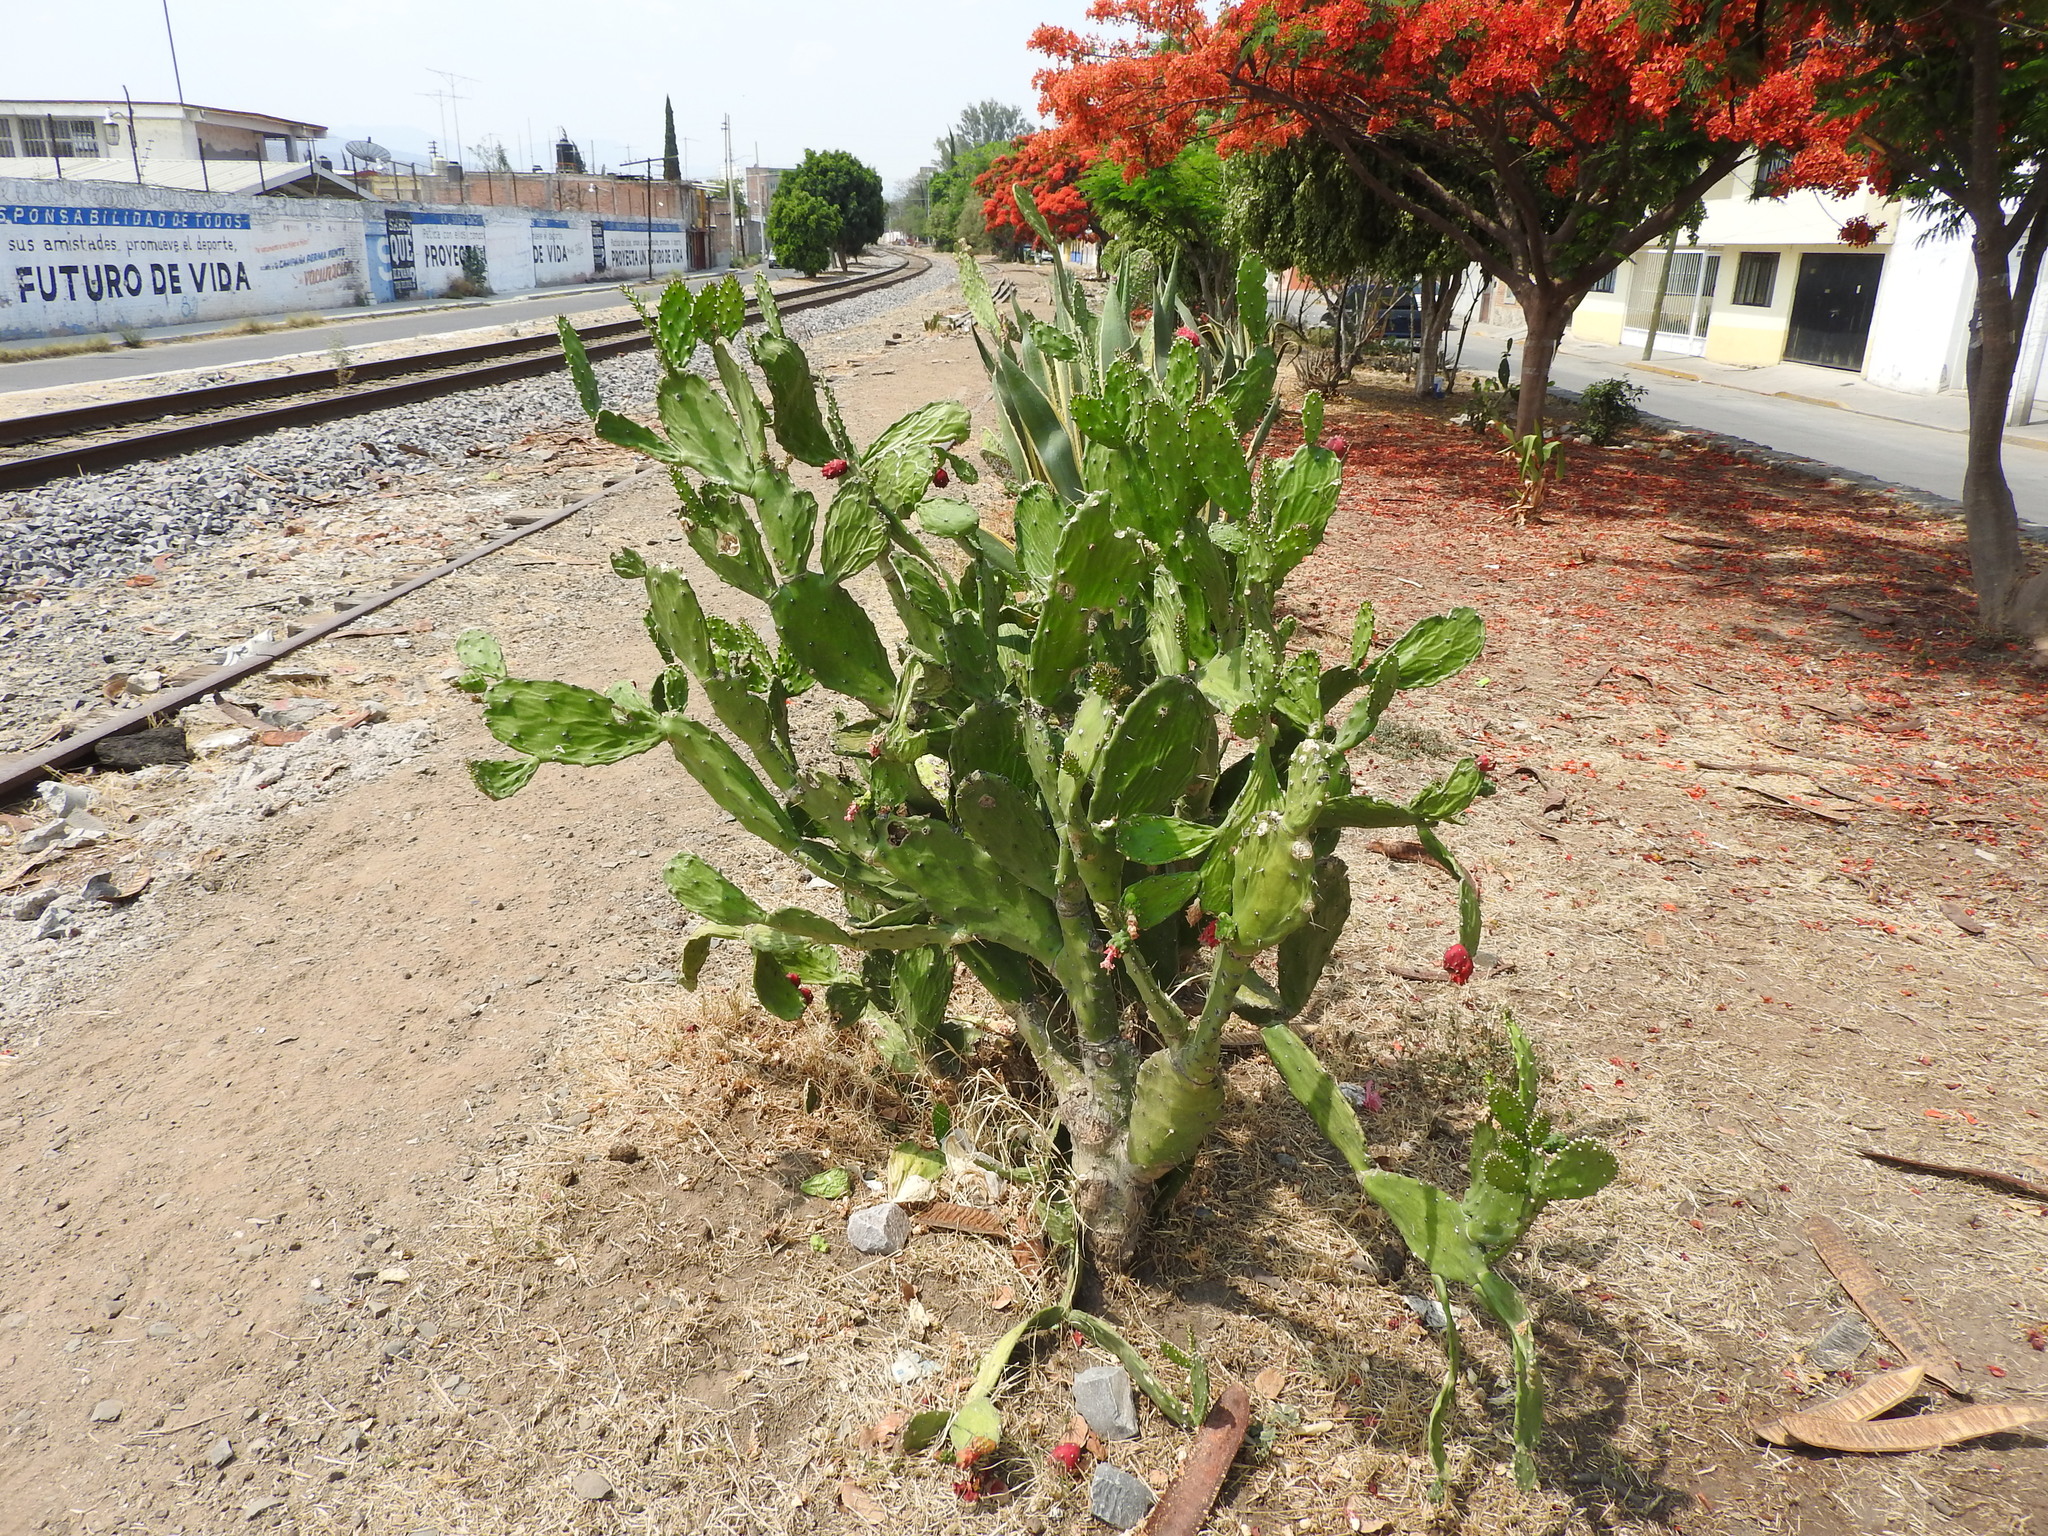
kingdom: Plantae
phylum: Tracheophyta
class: Magnoliopsida
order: Caryophyllales
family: Cactaceae
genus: Opuntia
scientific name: Opuntia cochenillifera
